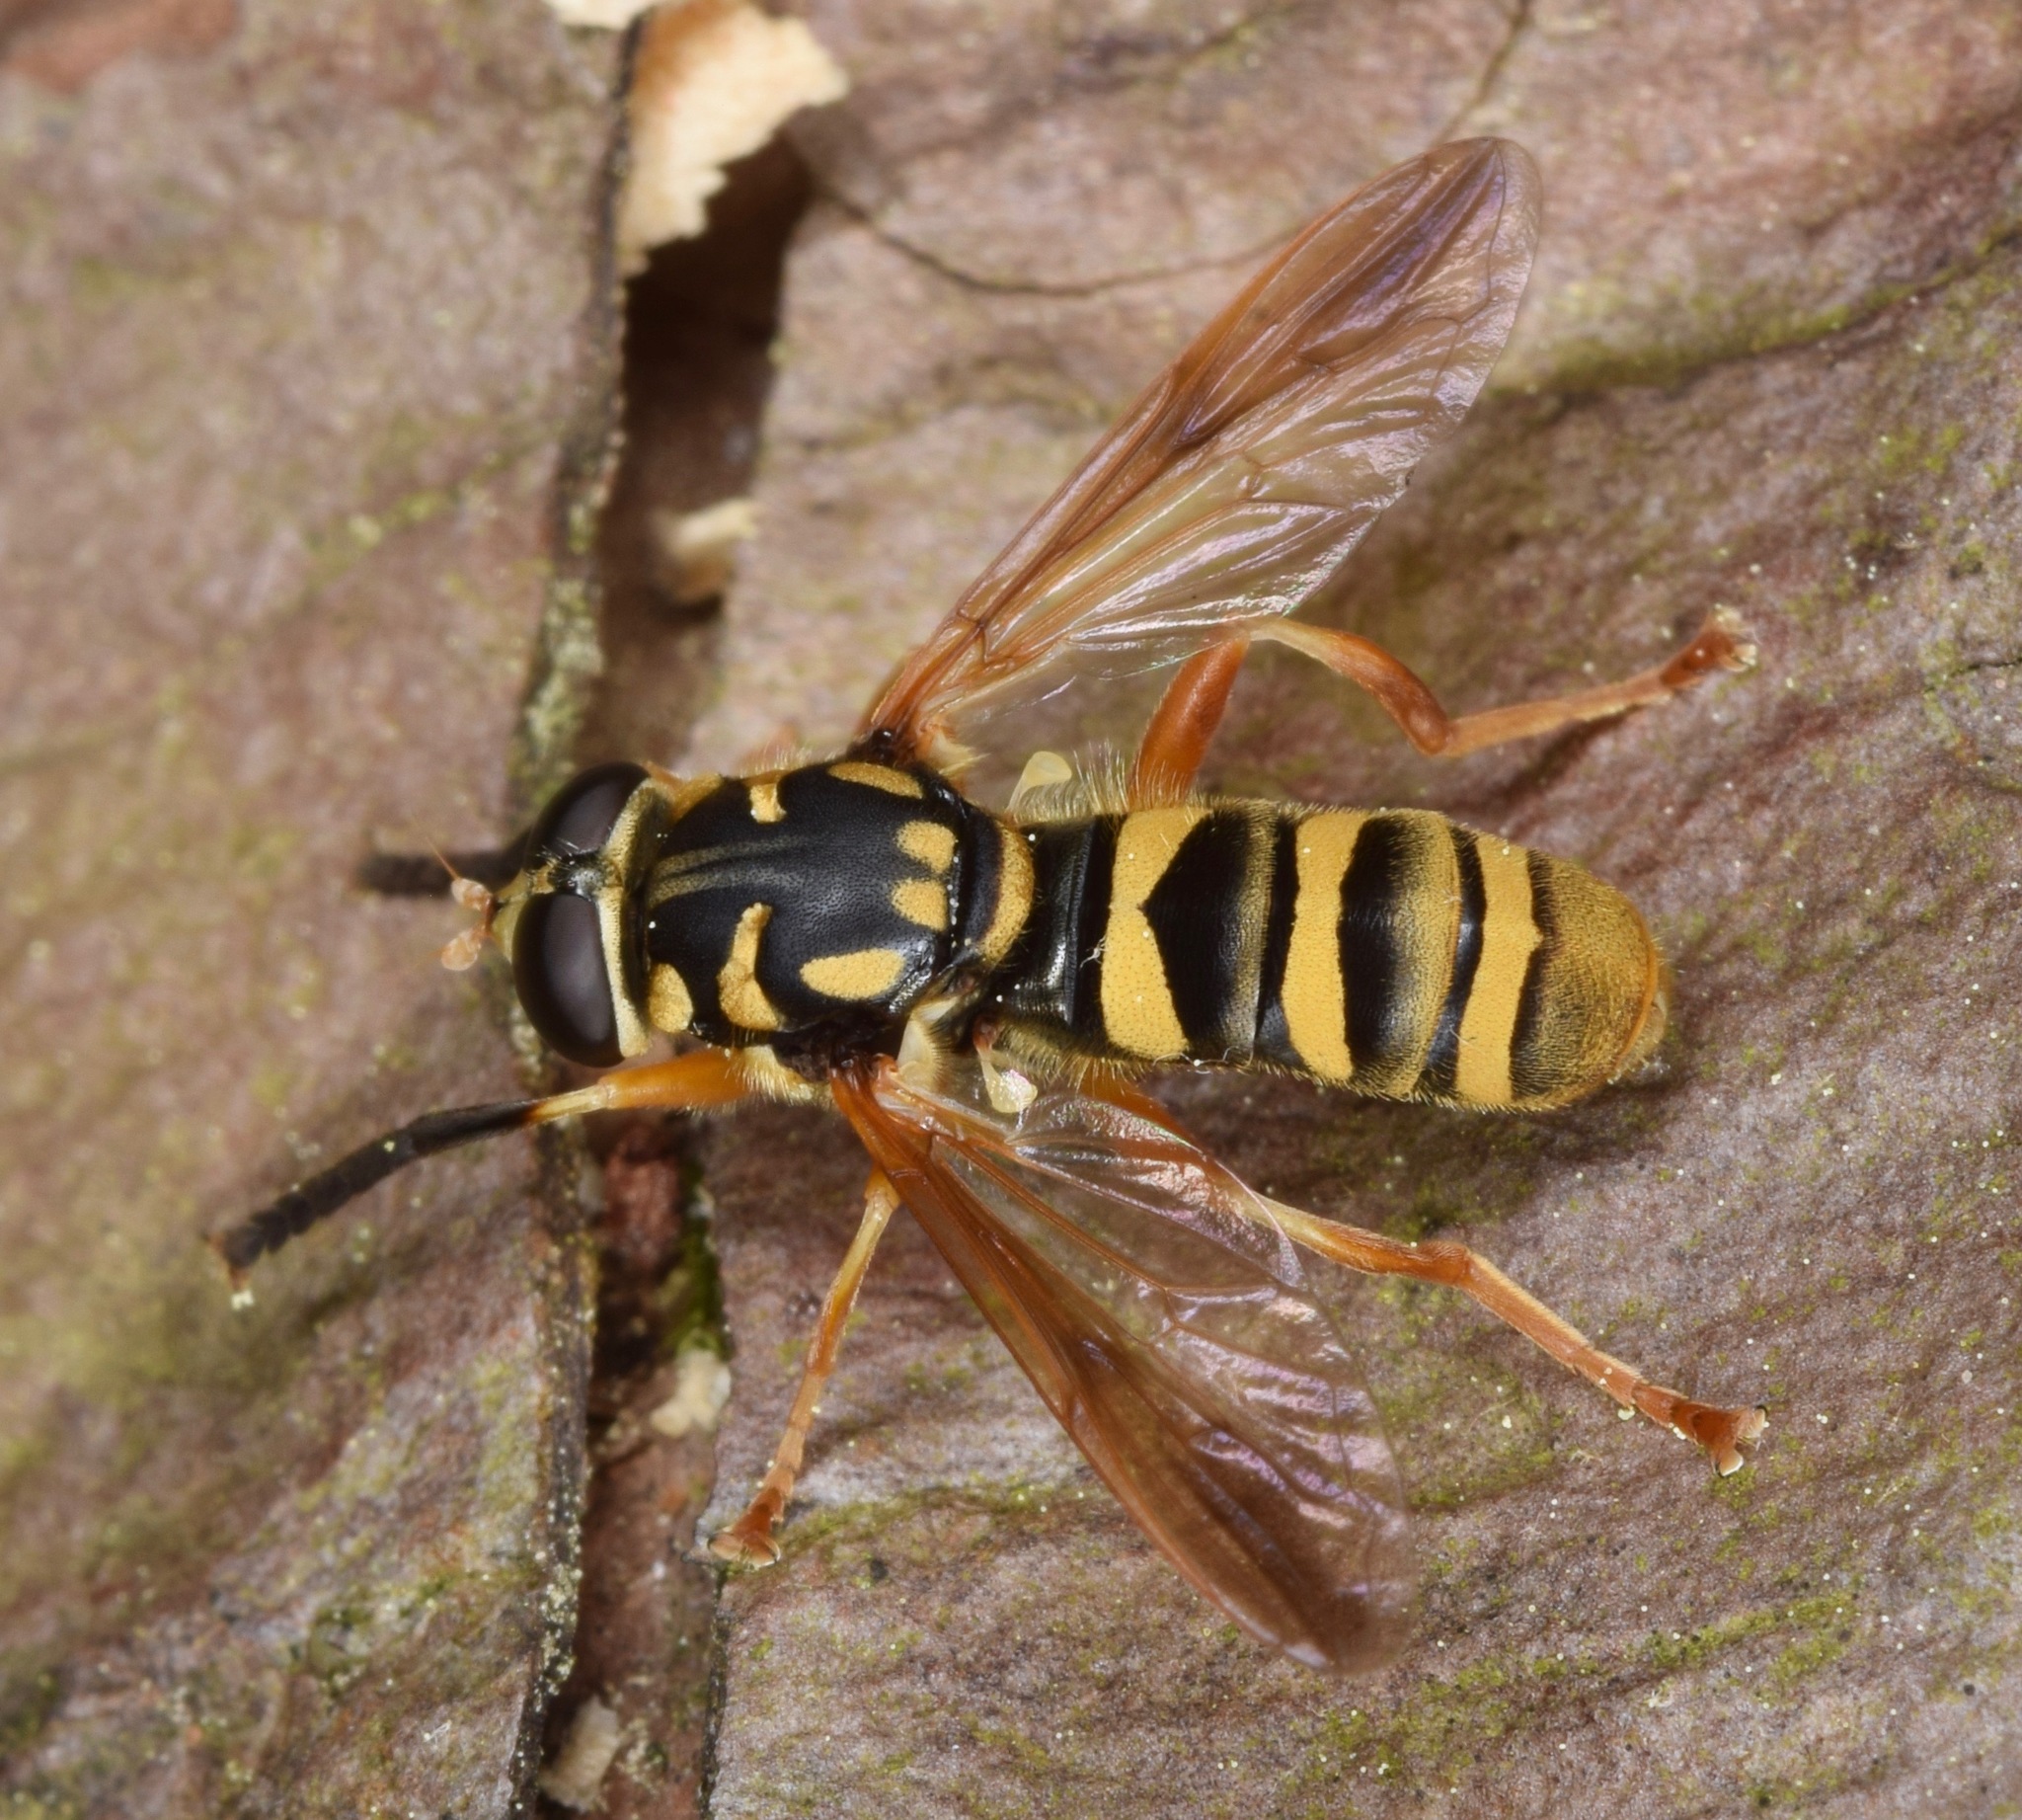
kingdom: Animalia
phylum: Arthropoda
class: Insecta
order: Diptera
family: Syrphidae
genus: Temnostoma
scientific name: Temnostoma daochum
